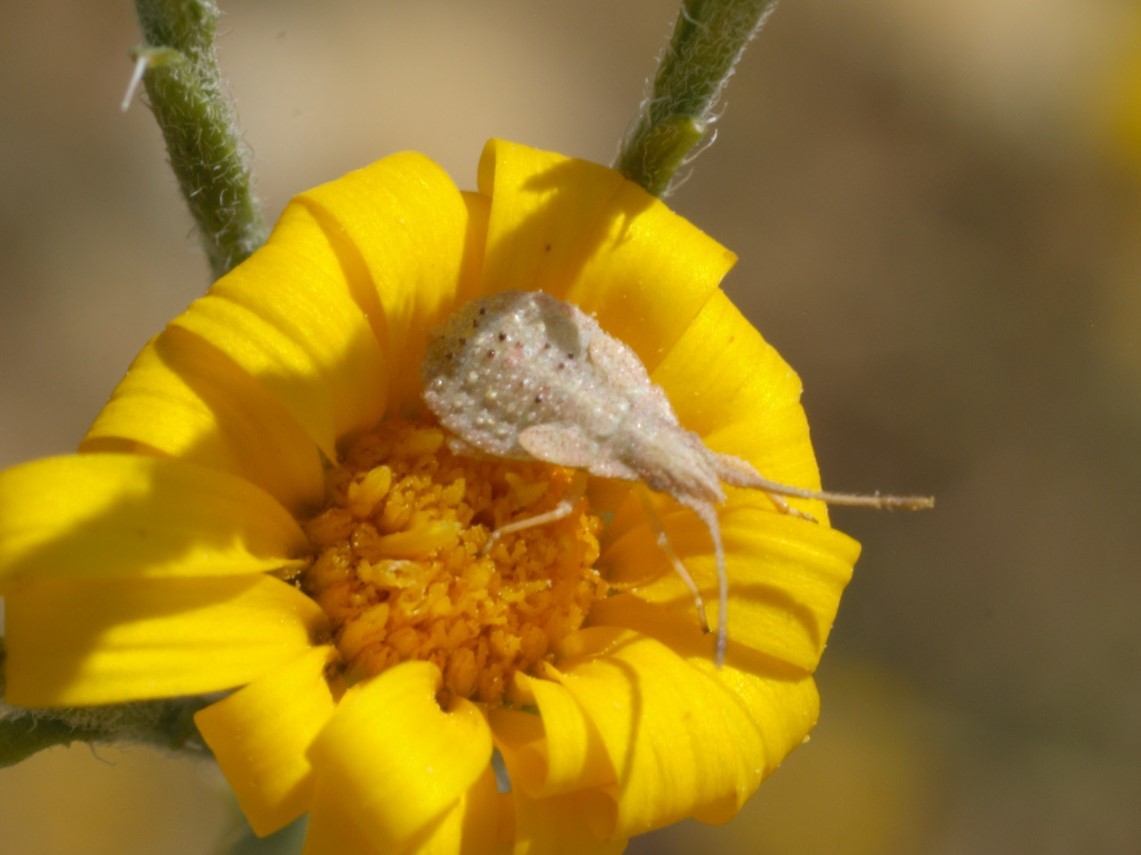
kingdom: Animalia
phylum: Arthropoda
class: Insecta
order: Hemiptera
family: Rhopalidae
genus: Harmostes
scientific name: Harmostes
